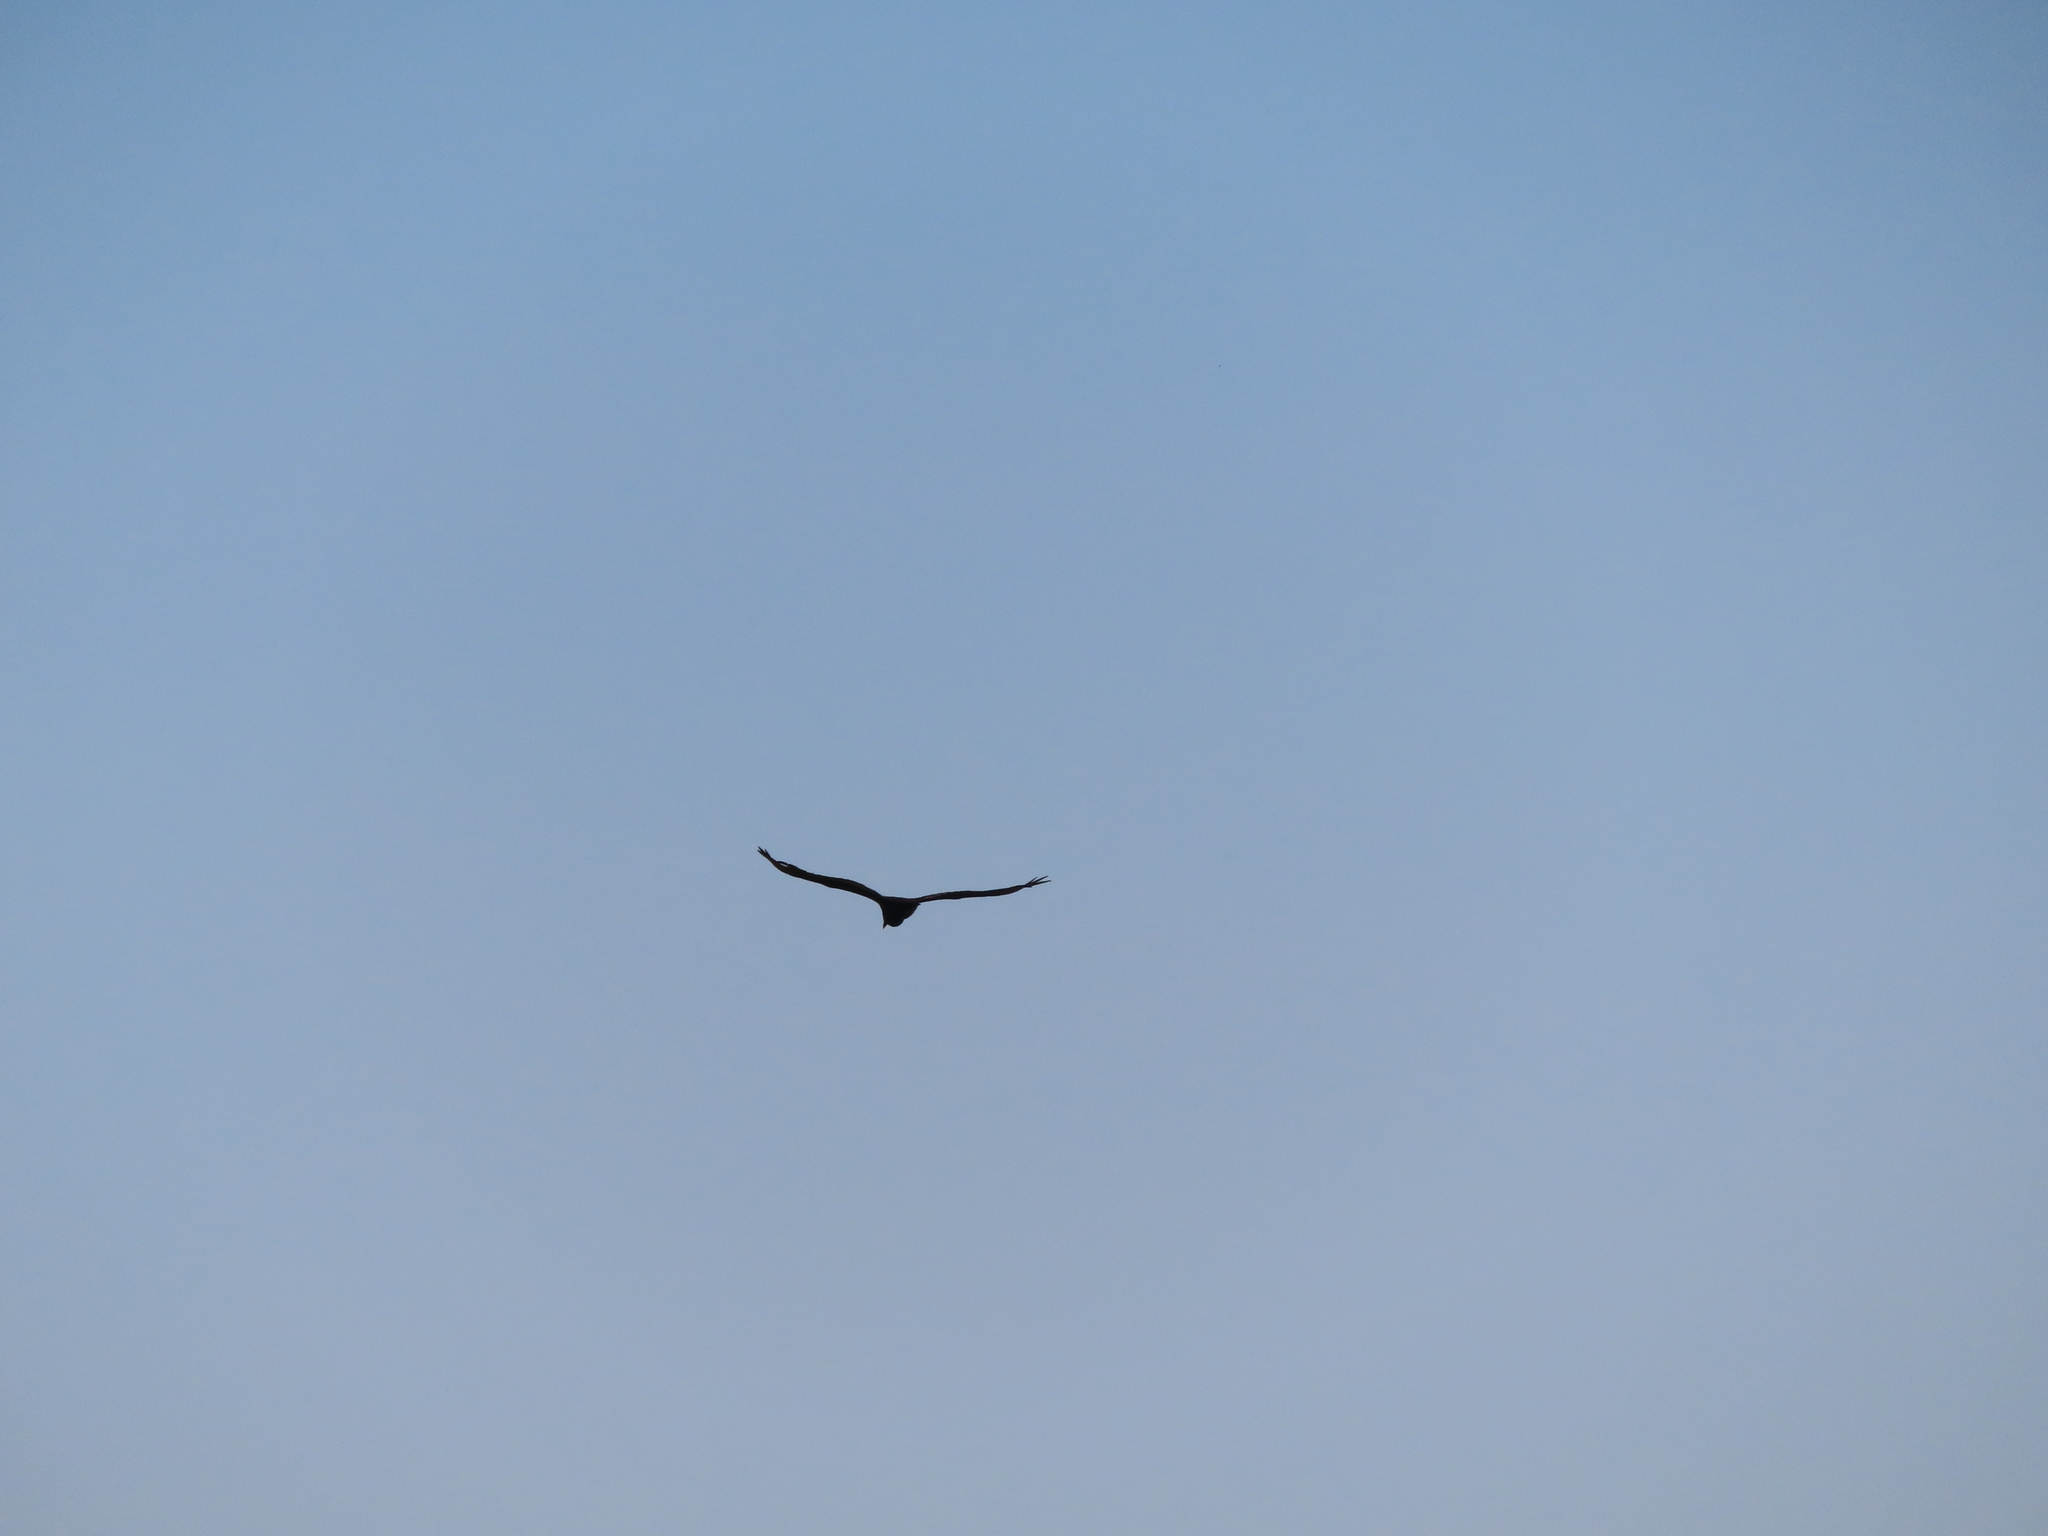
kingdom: Animalia
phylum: Chordata
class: Aves
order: Accipitriformes
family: Cathartidae
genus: Coragyps
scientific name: Coragyps atratus
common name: Black vulture
